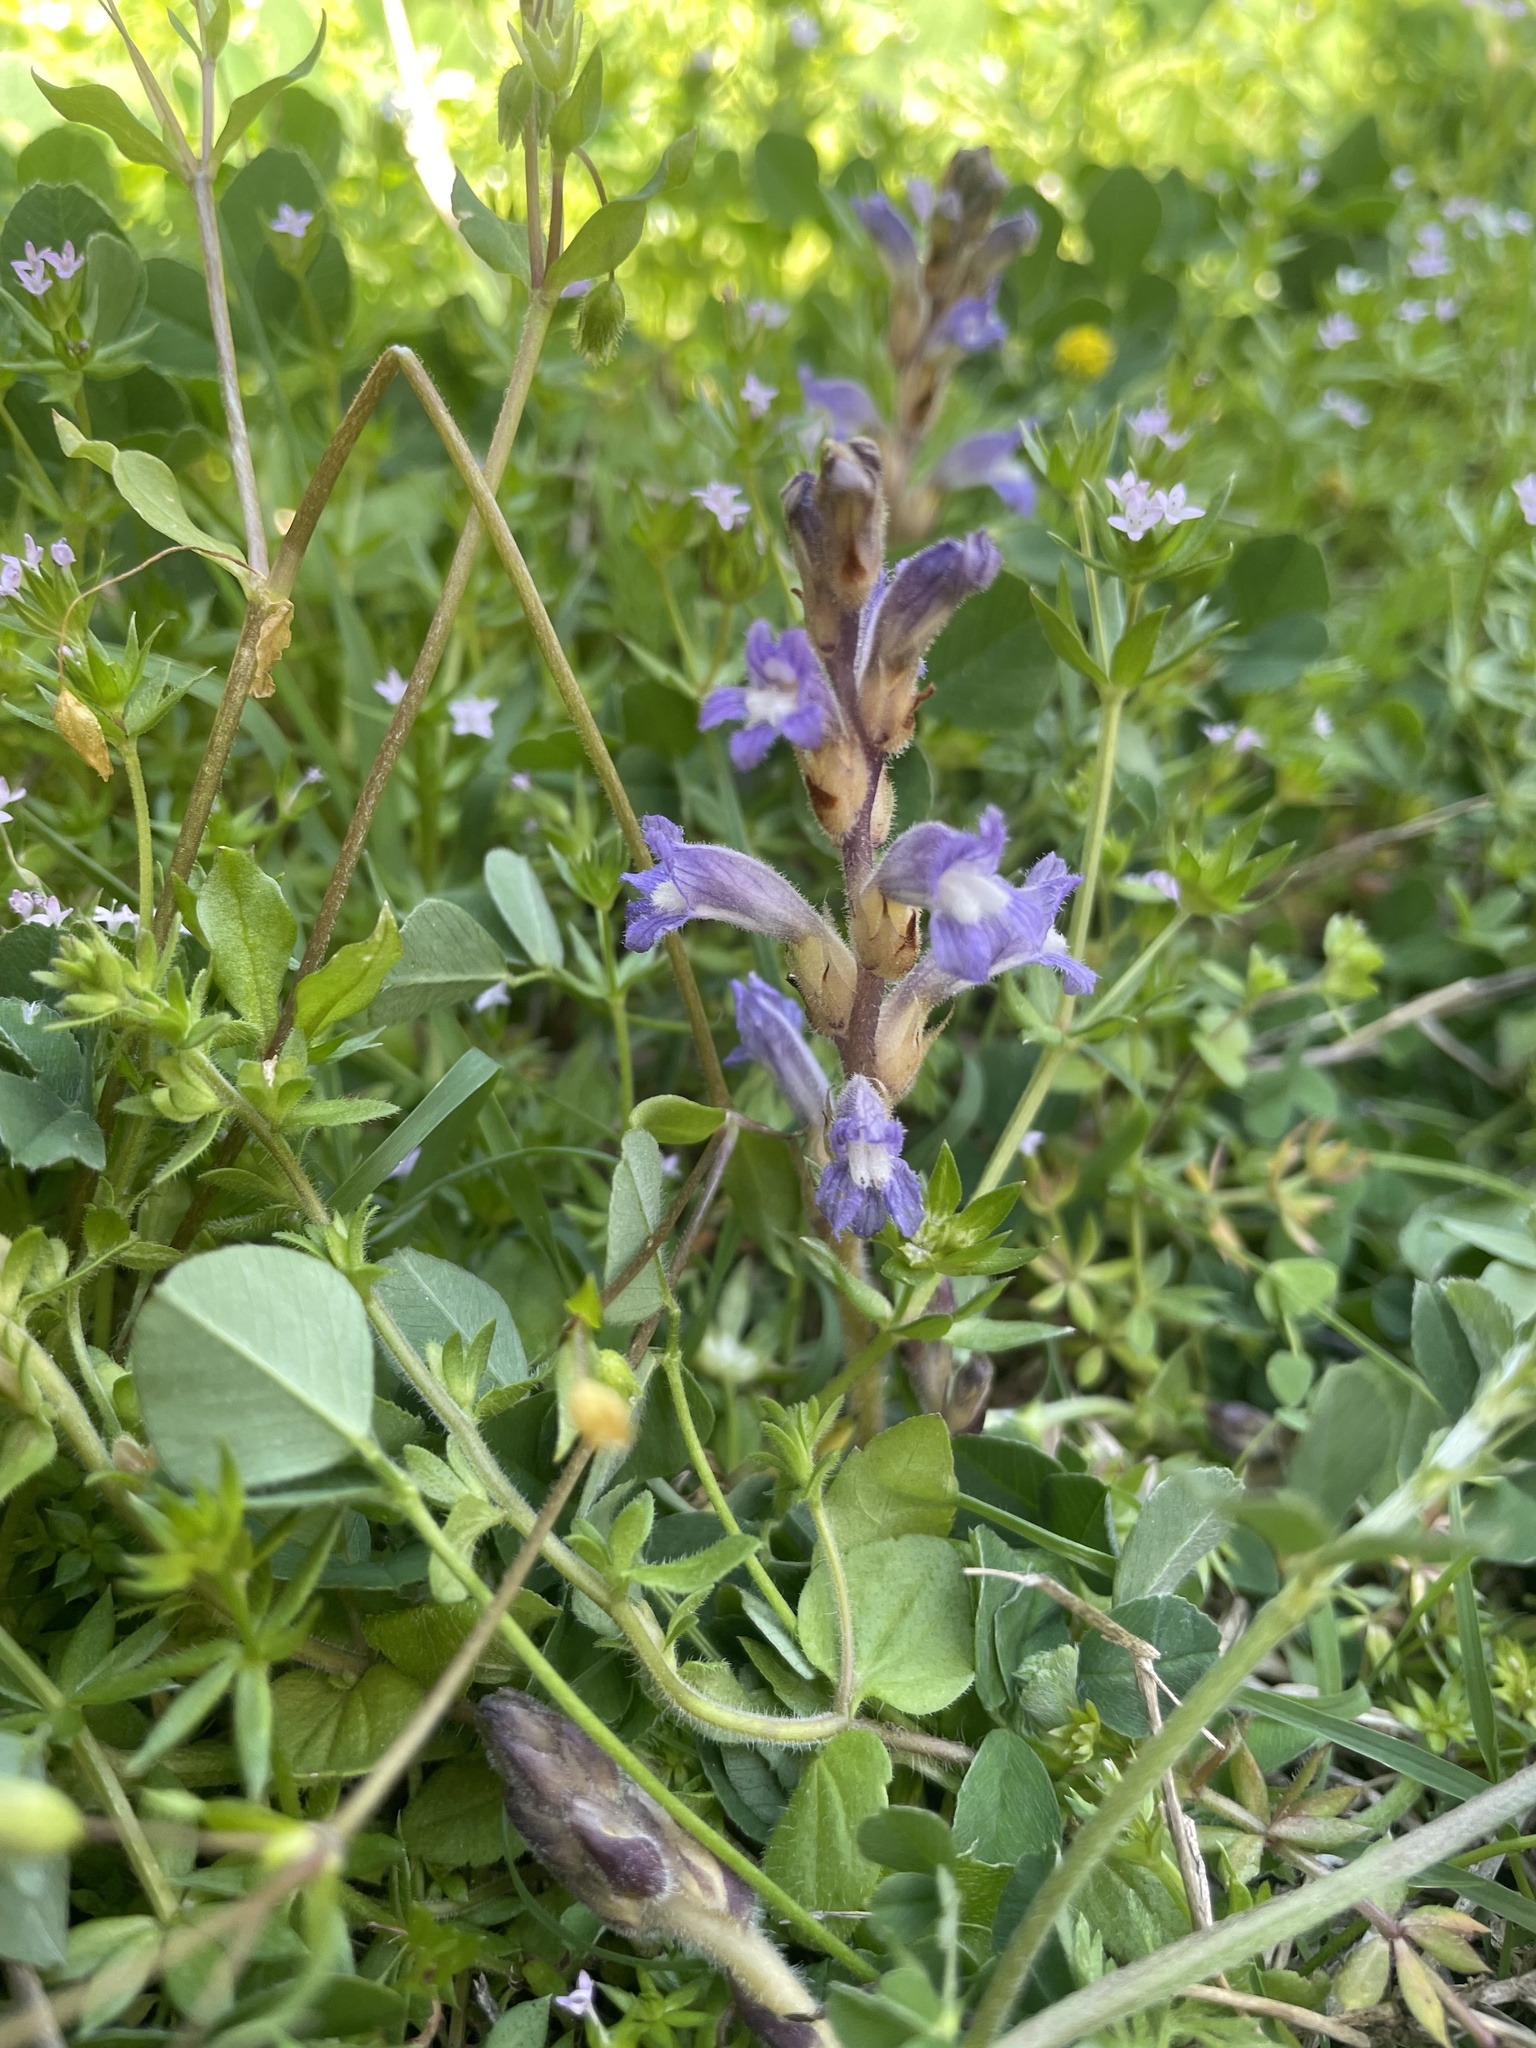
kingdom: Plantae
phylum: Tracheophyta
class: Magnoliopsida
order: Lamiales
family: Orobanchaceae
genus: Phelipanche
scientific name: Phelipanche mutelii
